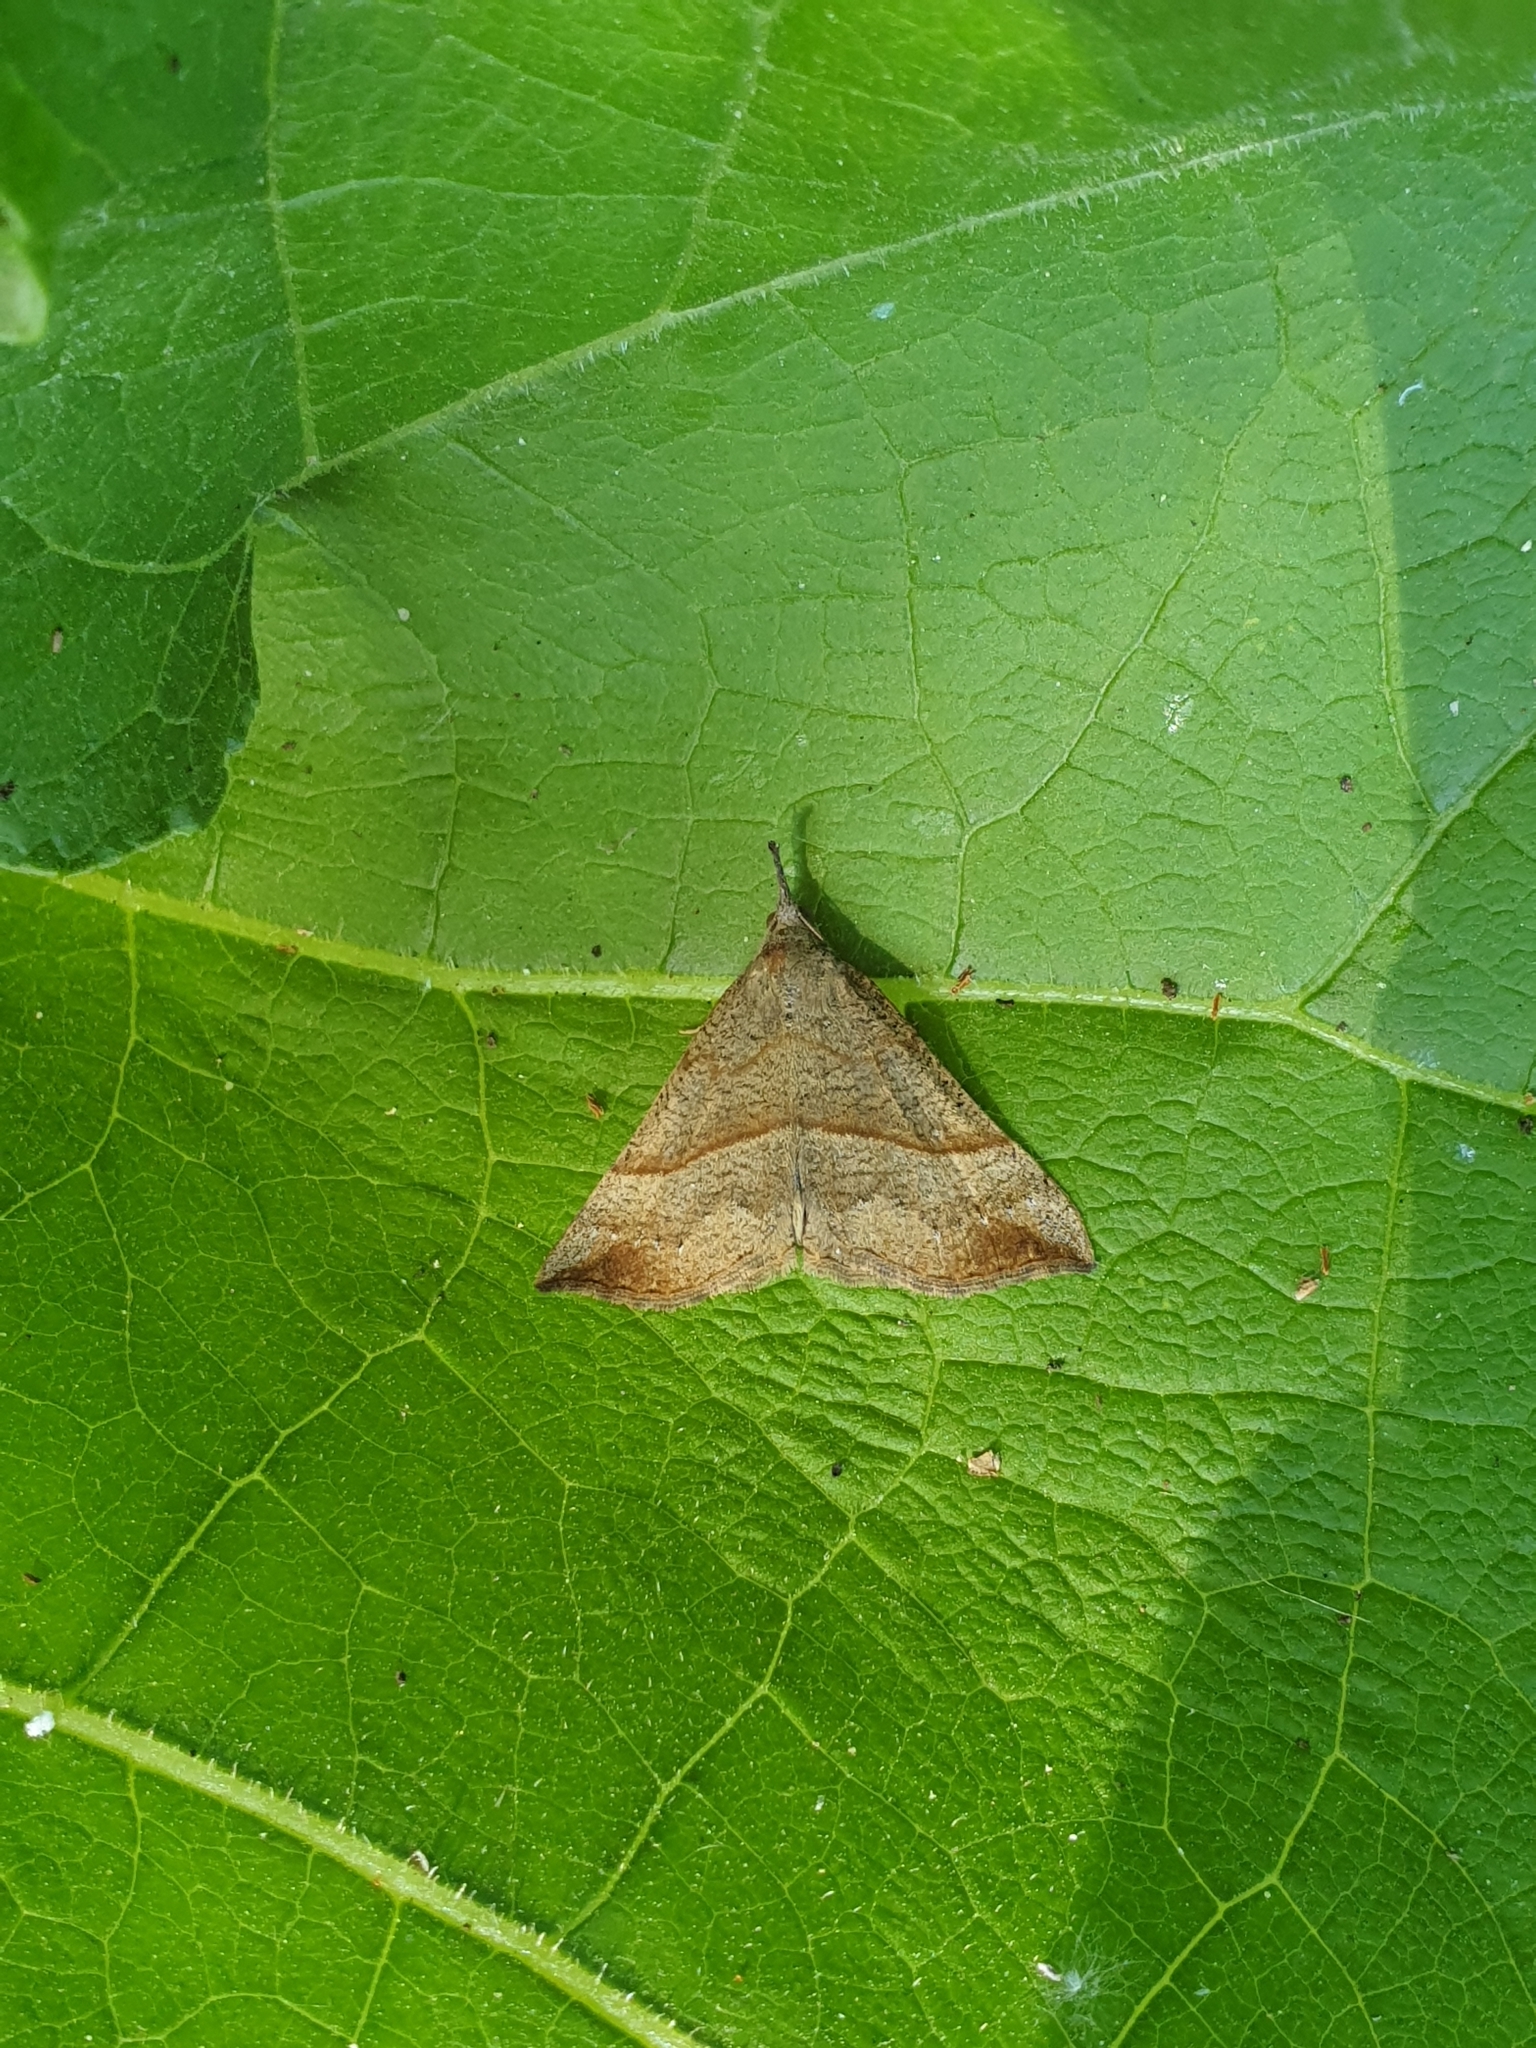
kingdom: Animalia
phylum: Arthropoda
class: Insecta
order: Lepidoptera
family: Erebidae
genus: Hypena
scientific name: Hypena proboscidalis
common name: Snout
